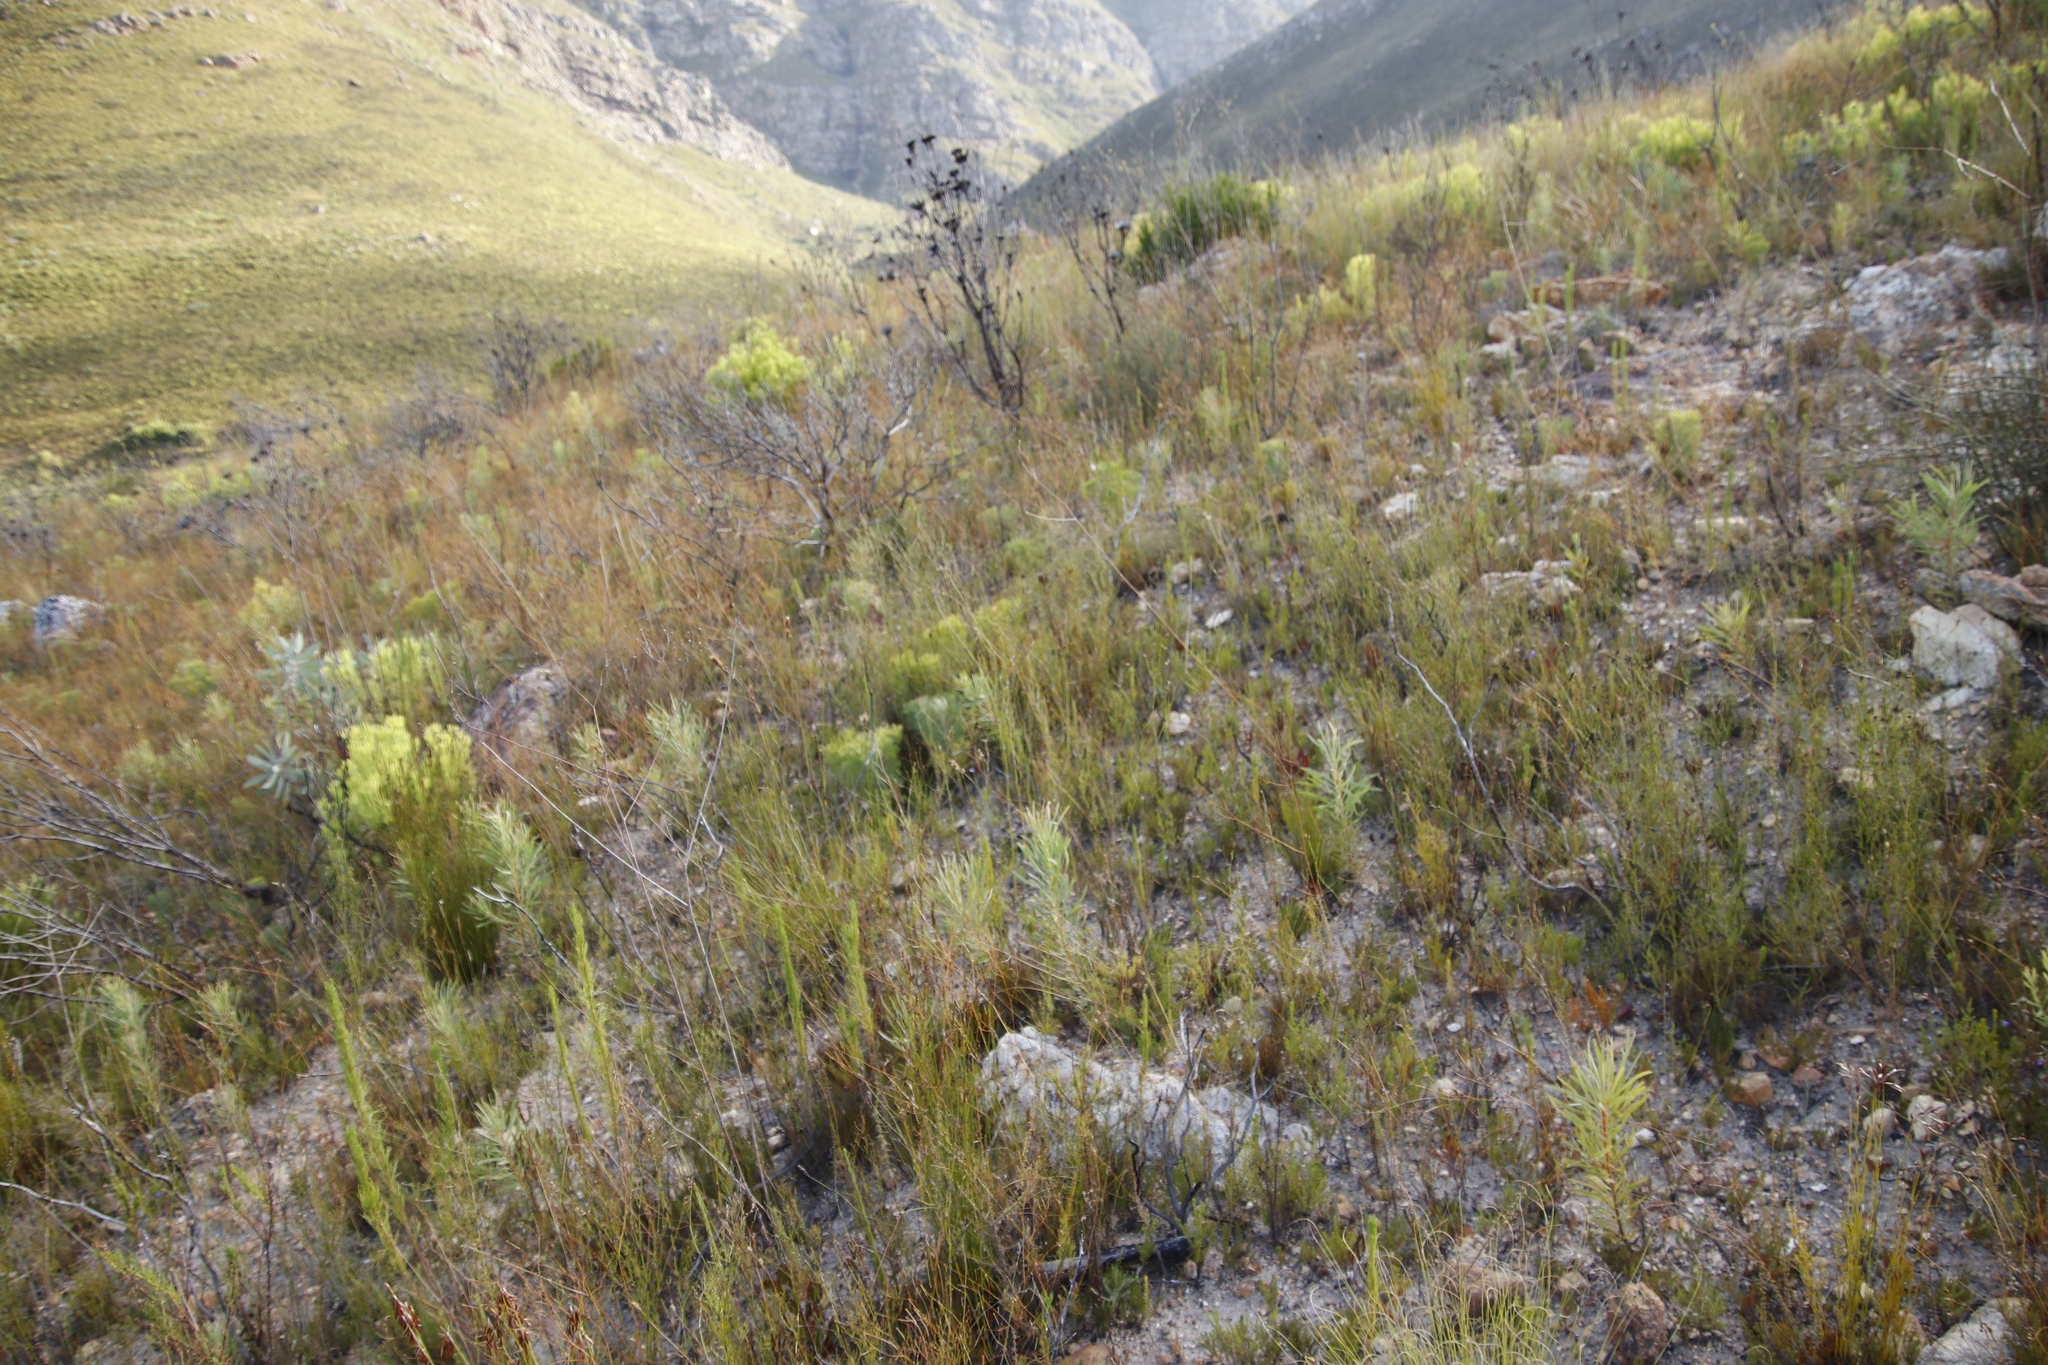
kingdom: Plantae
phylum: Tracheophyta
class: Magnoliopsida
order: Proteales
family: Proteaceae
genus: Protea
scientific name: Protea repens
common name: Sugarbush
